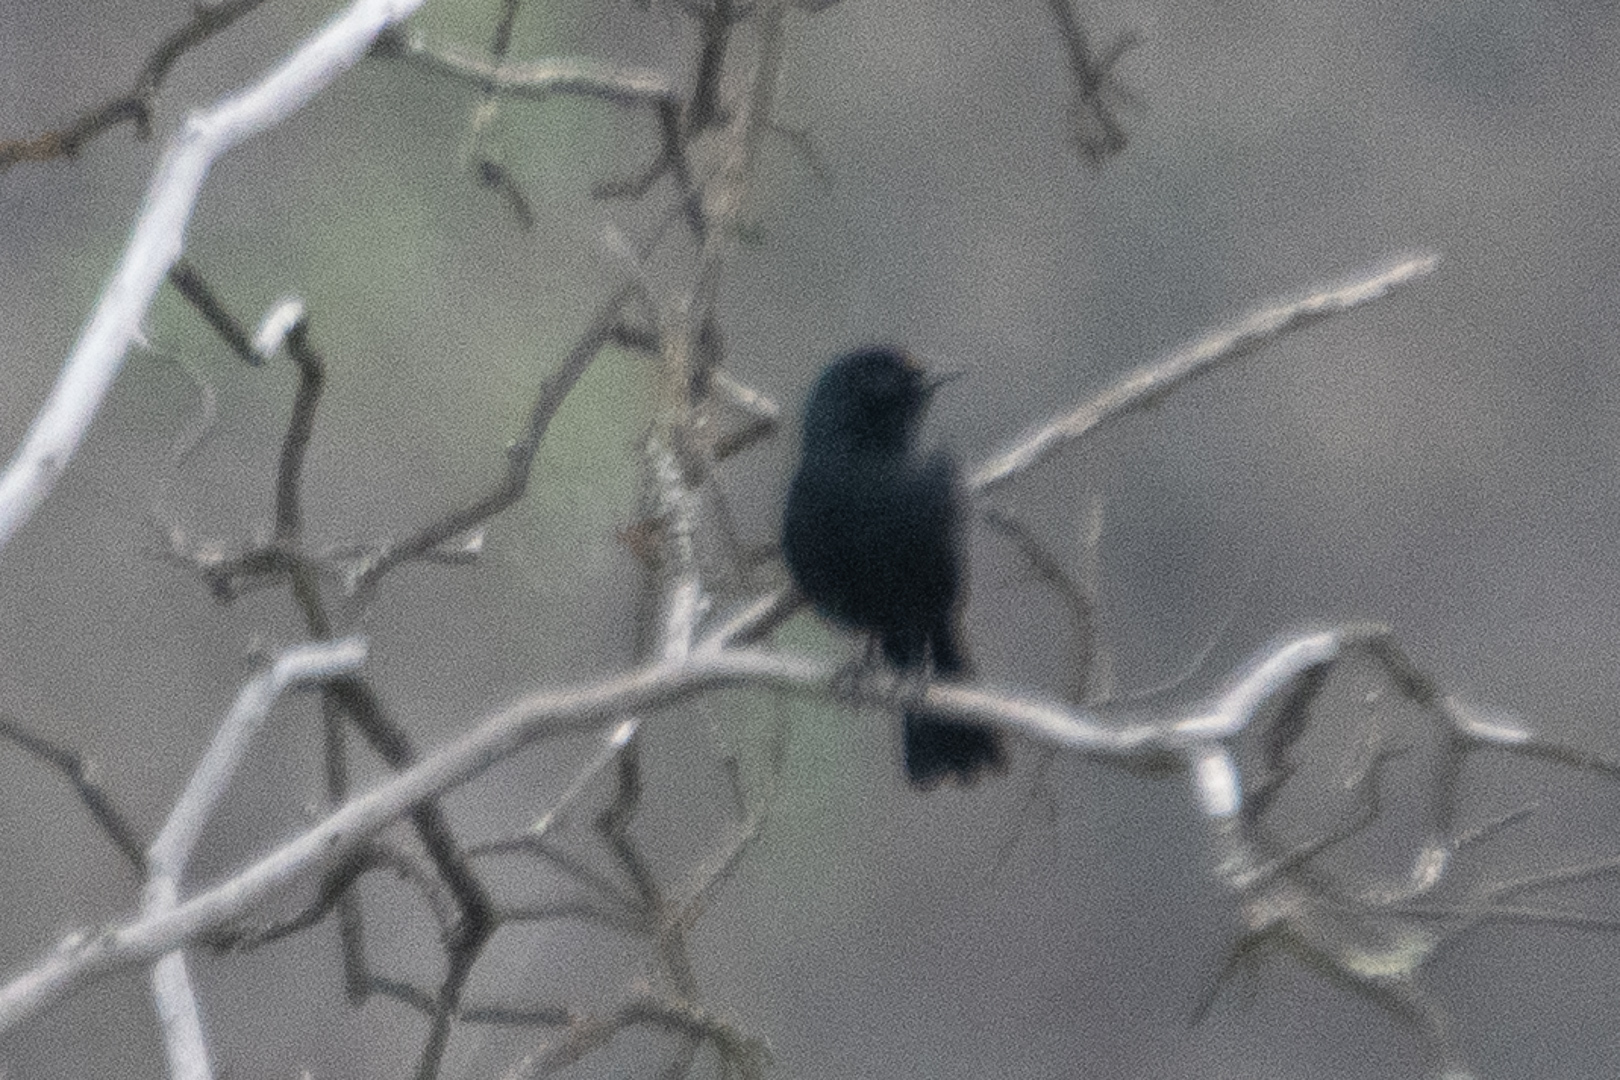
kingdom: Animalia
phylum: Chordata
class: Aves
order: Passeriformes
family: Icteridae
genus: Curaeus
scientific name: Curaeus curaeus
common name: Austral blackbird
